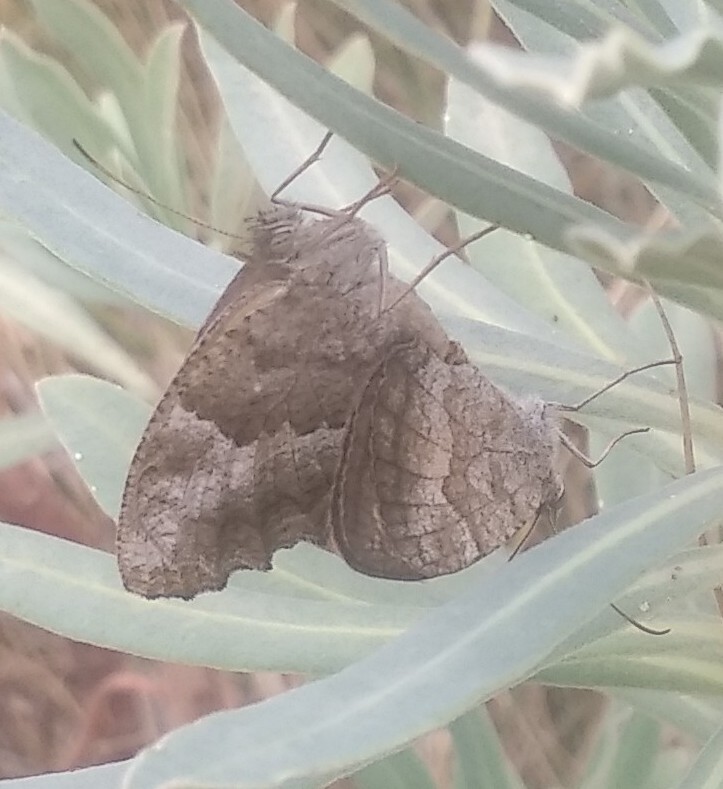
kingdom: Animalia
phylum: Arthropoda
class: Insecta
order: Lepidoptera
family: Nymphalidae
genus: Pyronia
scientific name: Pyronia cecilia
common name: Southern gatekeeper
